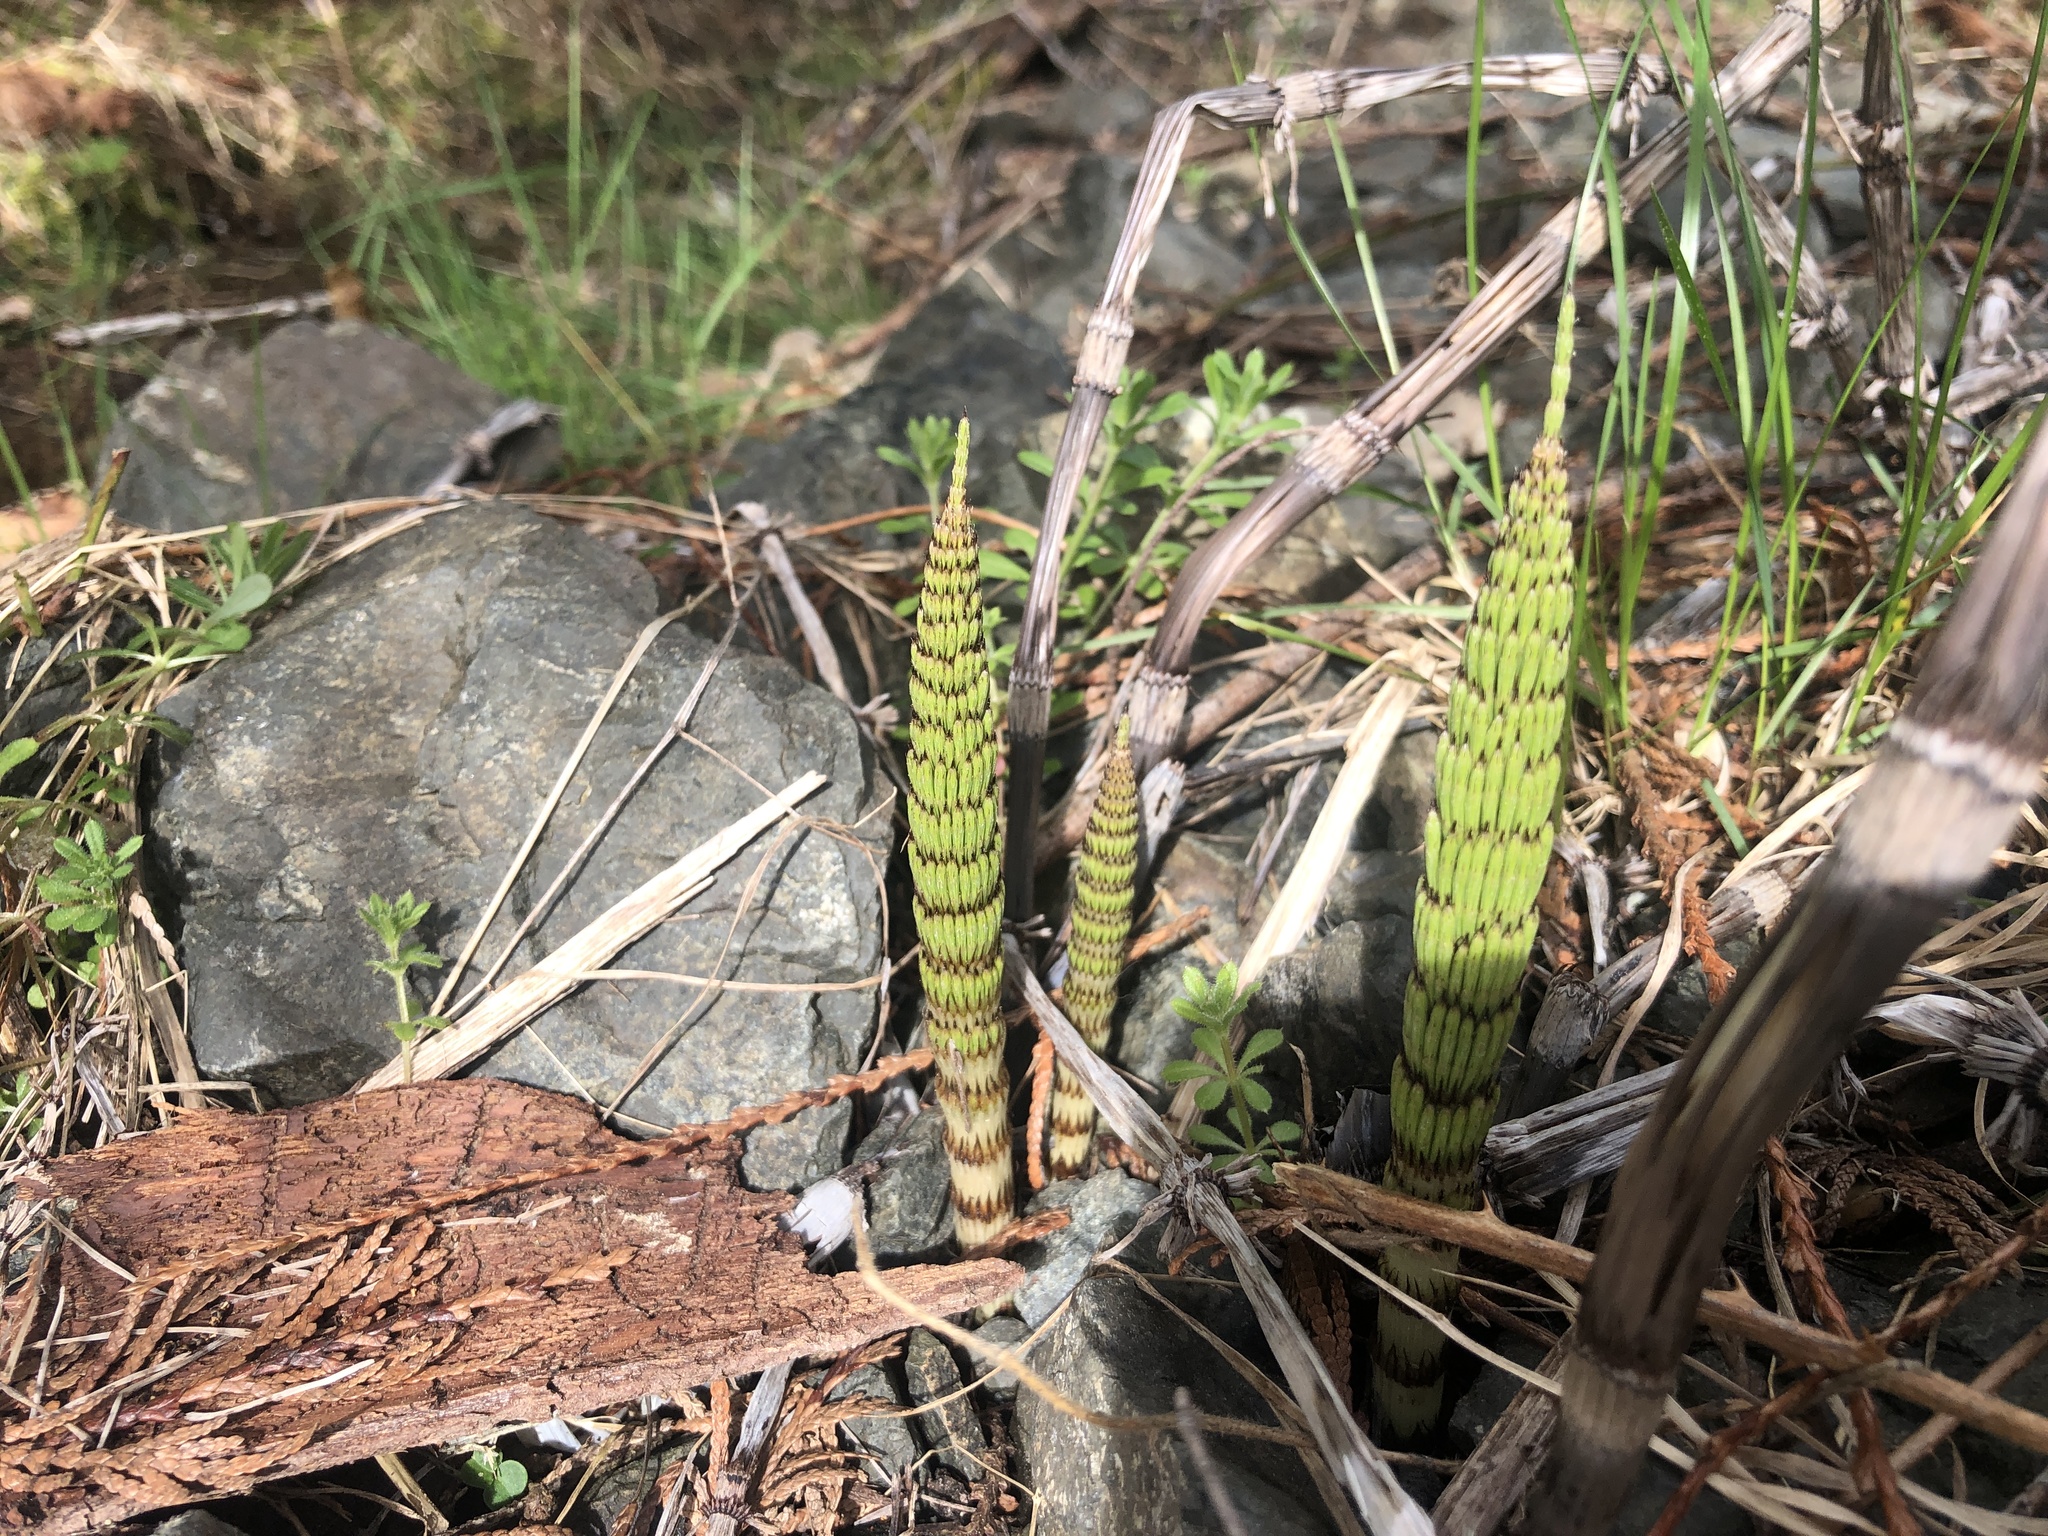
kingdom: Plantae
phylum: Tracheophyta
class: Polypodiopsida
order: Equisetales
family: Equisetaceae
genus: Equisetum
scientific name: Equisetum telmateia
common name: Great horsetail
